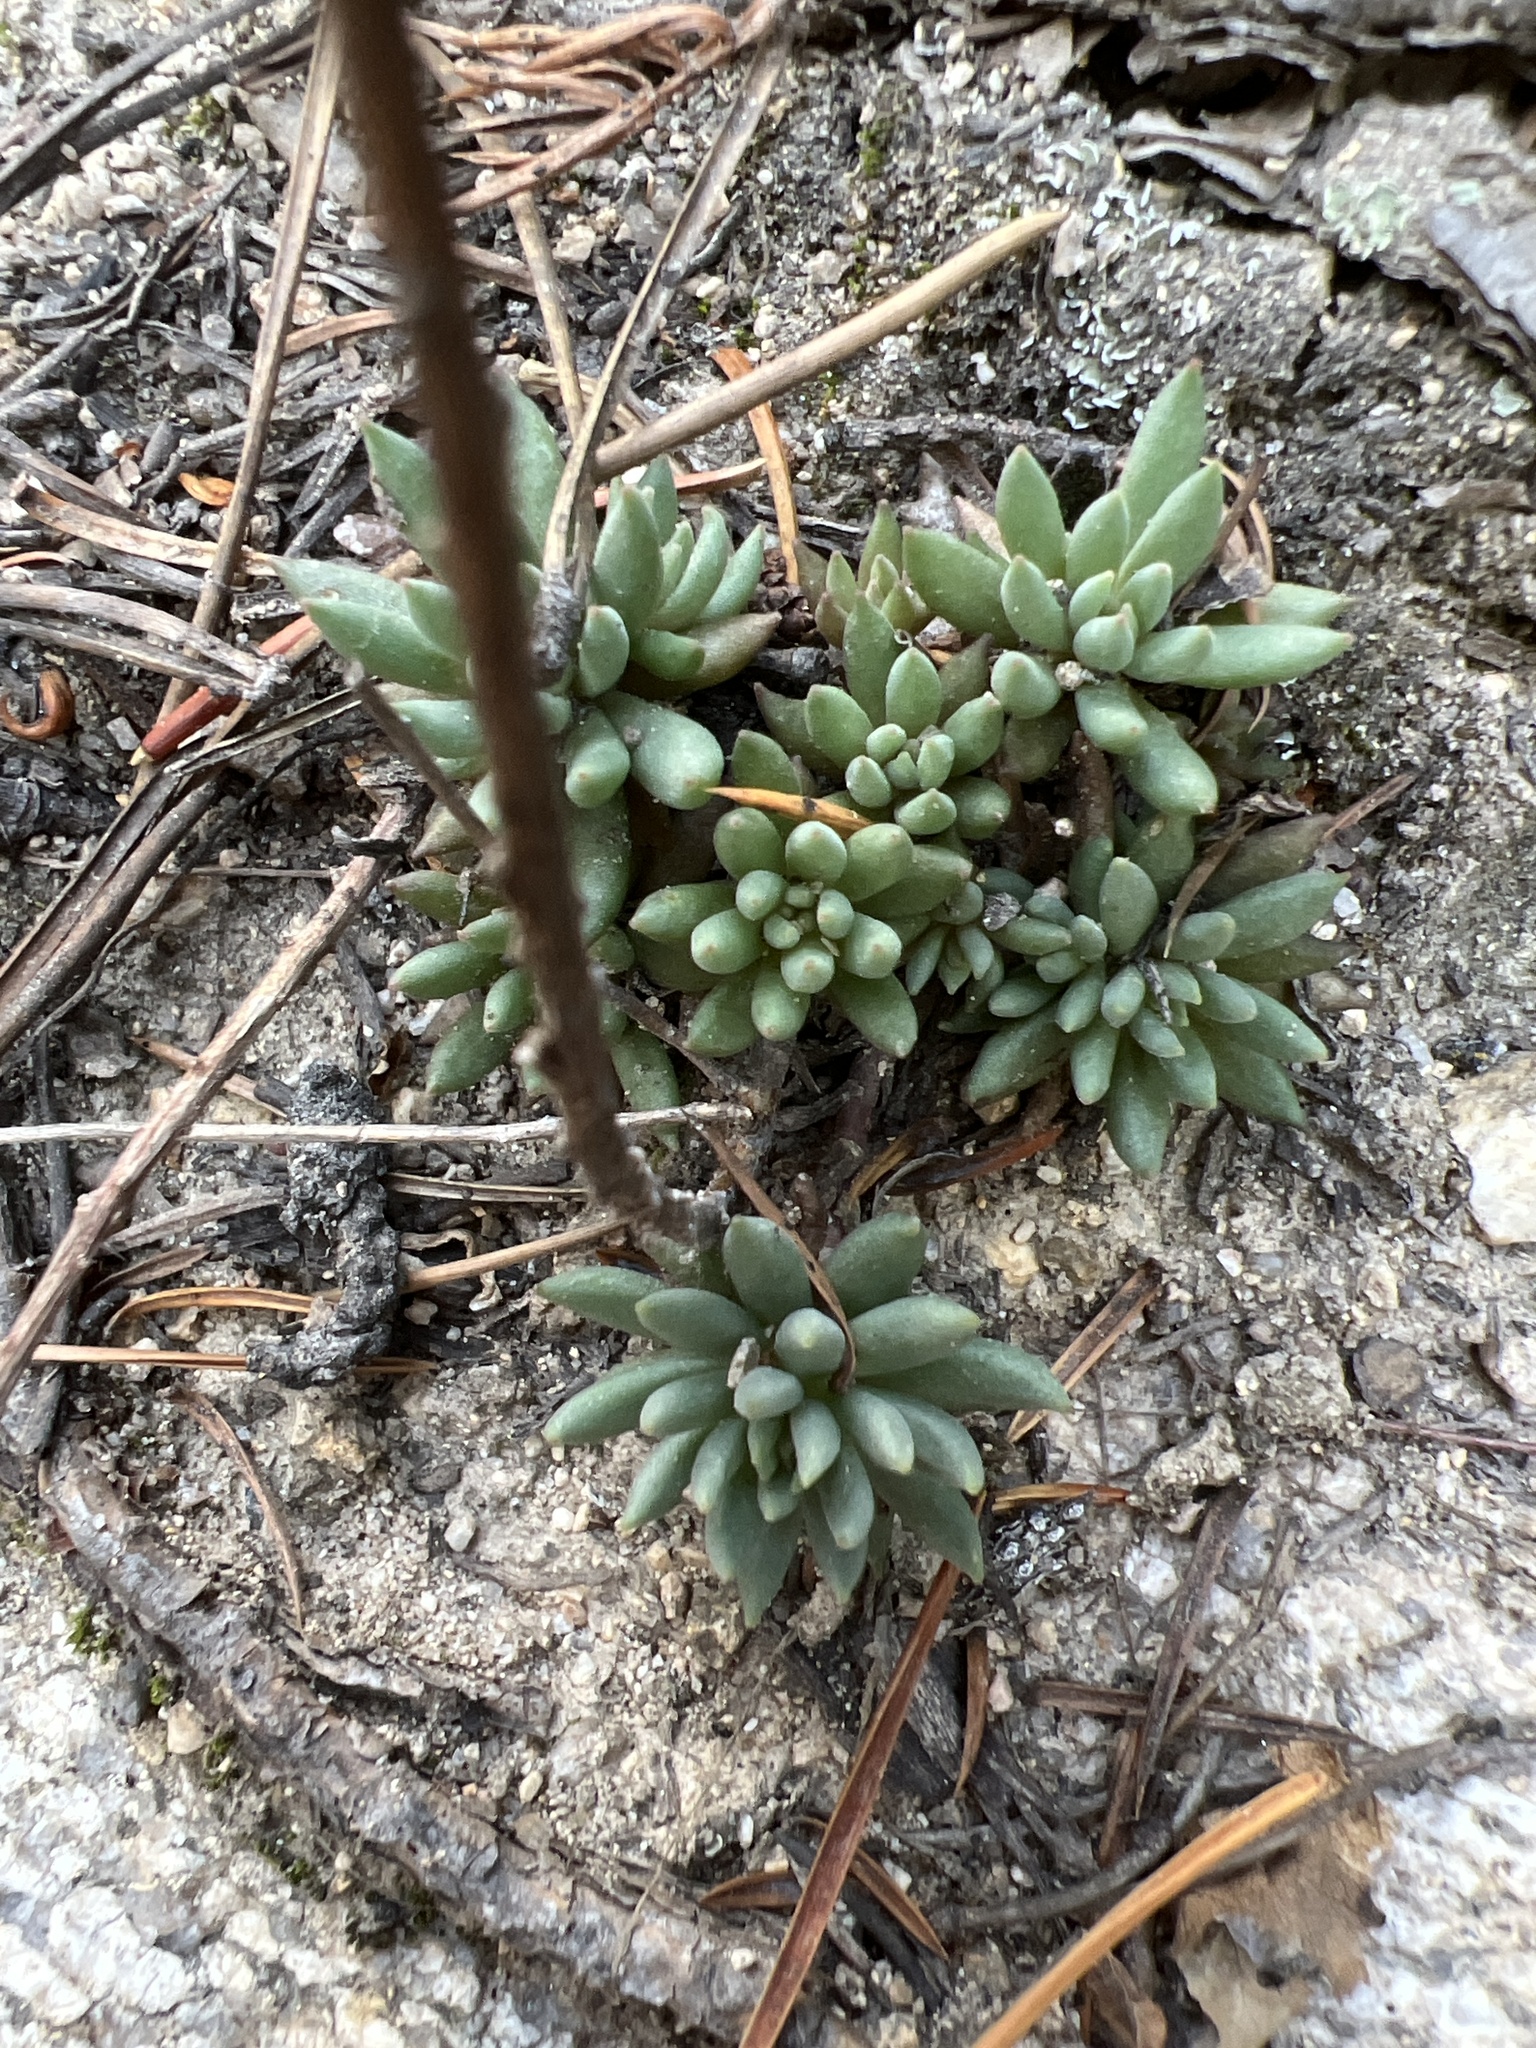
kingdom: Plantae
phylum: Tracheophyta
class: Magnoliopsida
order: Saxifragales
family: Crassulaceae
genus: Sedum
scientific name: Sedum lanceolatum
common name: Common stonecrop
